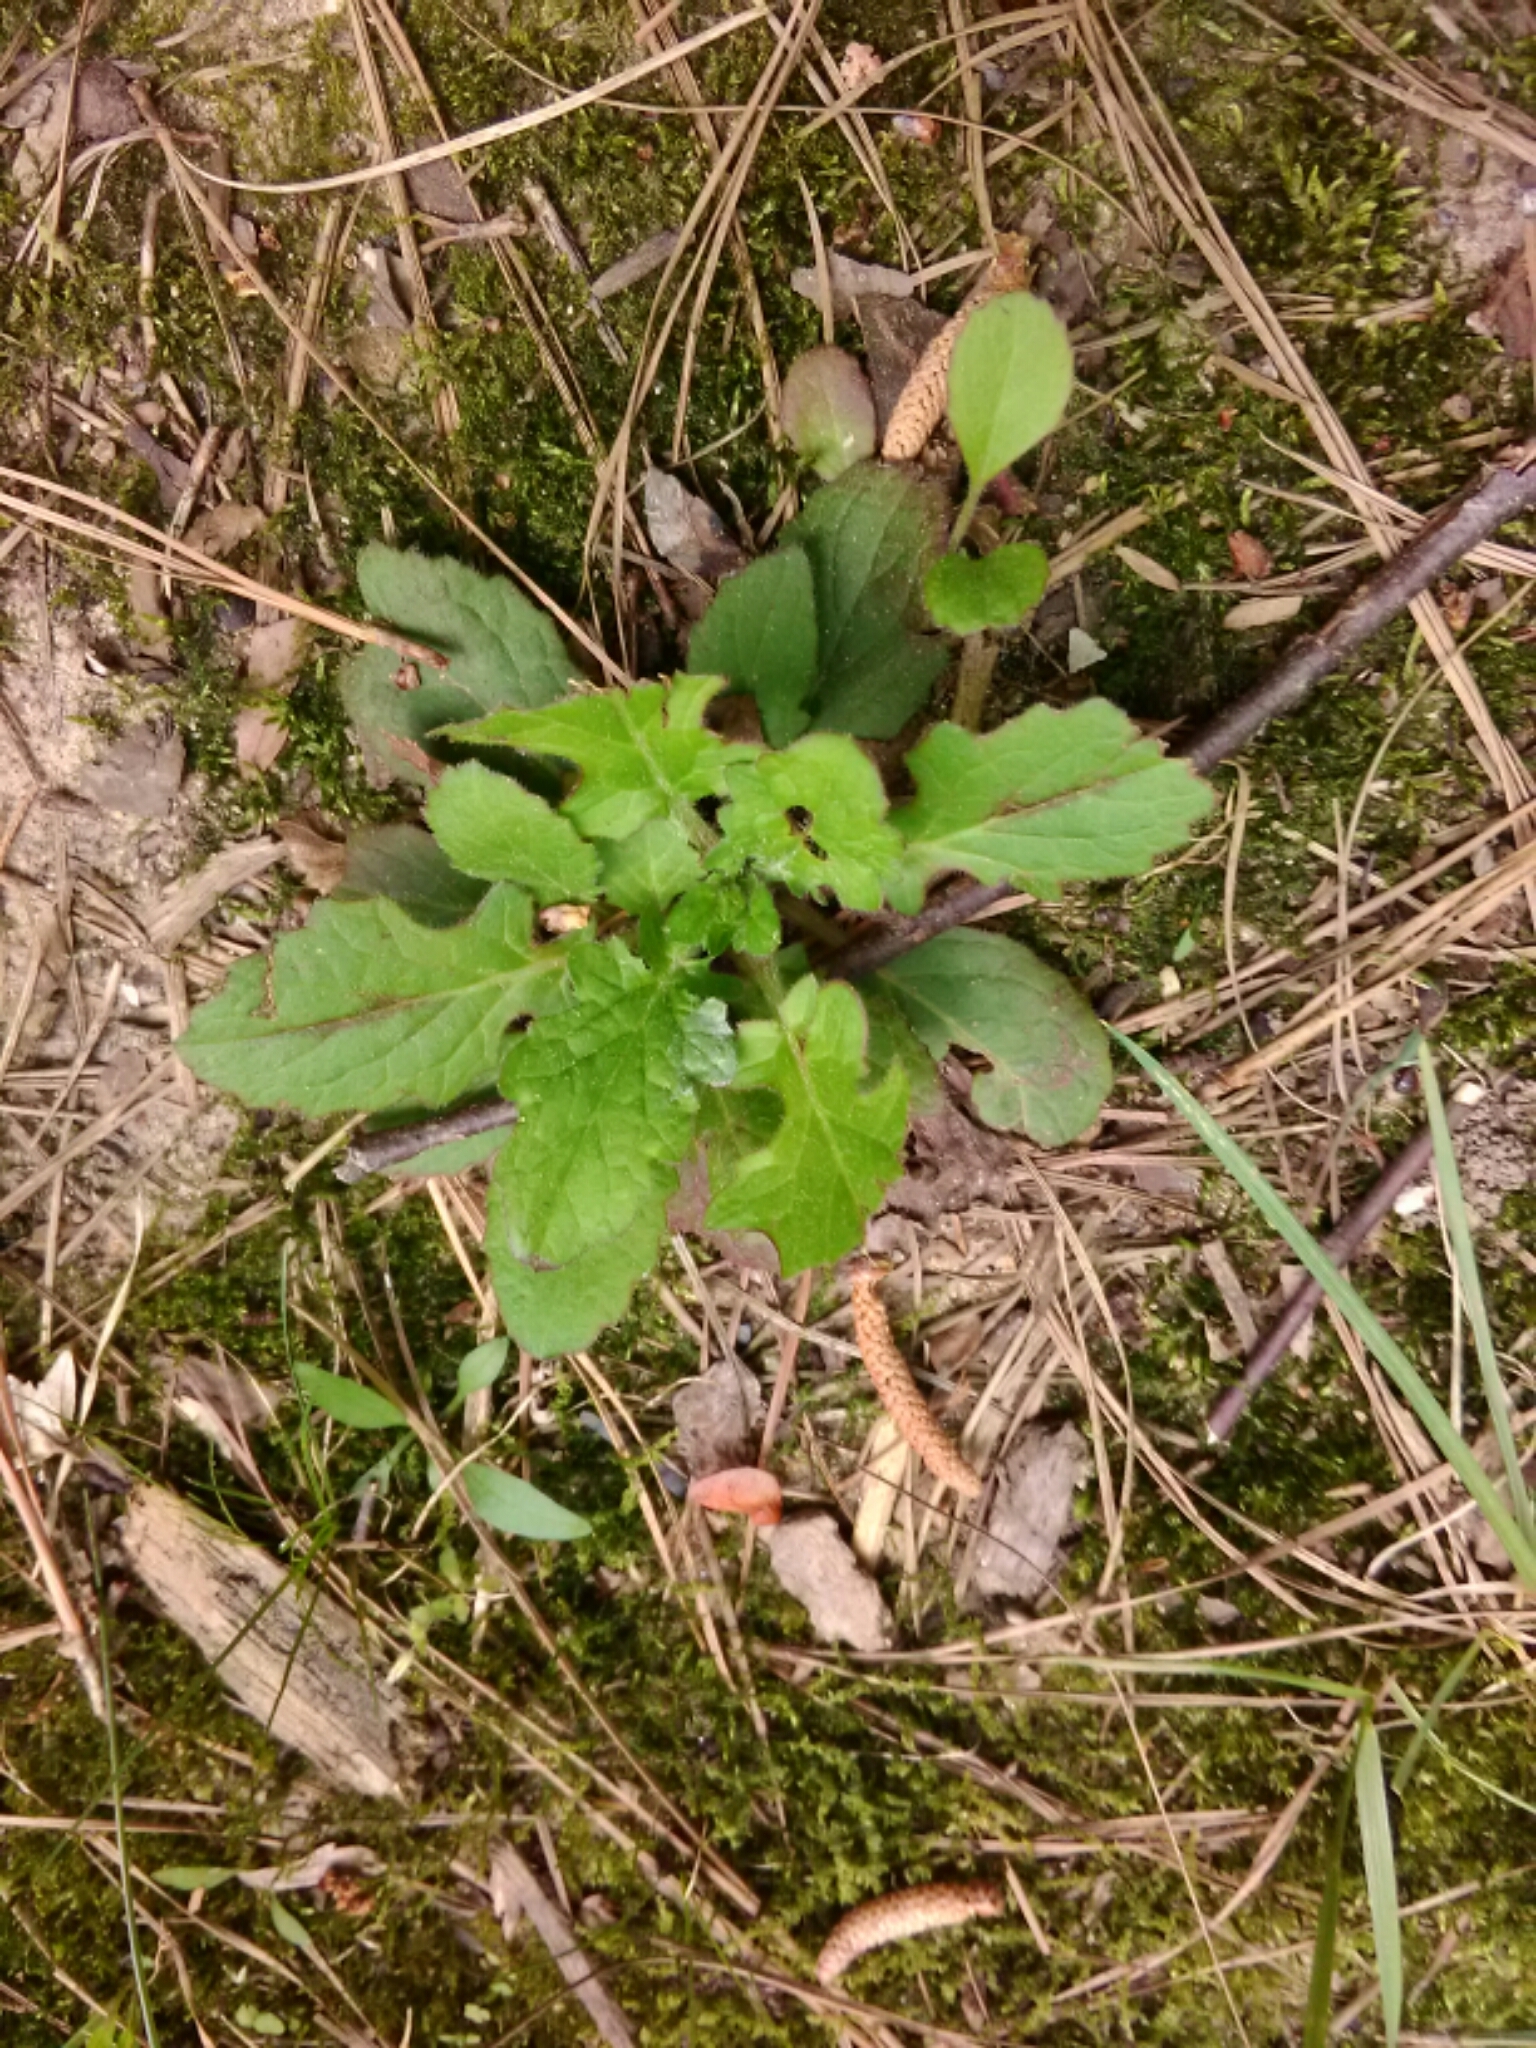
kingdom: Plantae
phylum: Tracheophyta
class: Magnoliopsida
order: Lamiales
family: Lamiaceae
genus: Salvia
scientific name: Salvia lyrata
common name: Cancerweed
